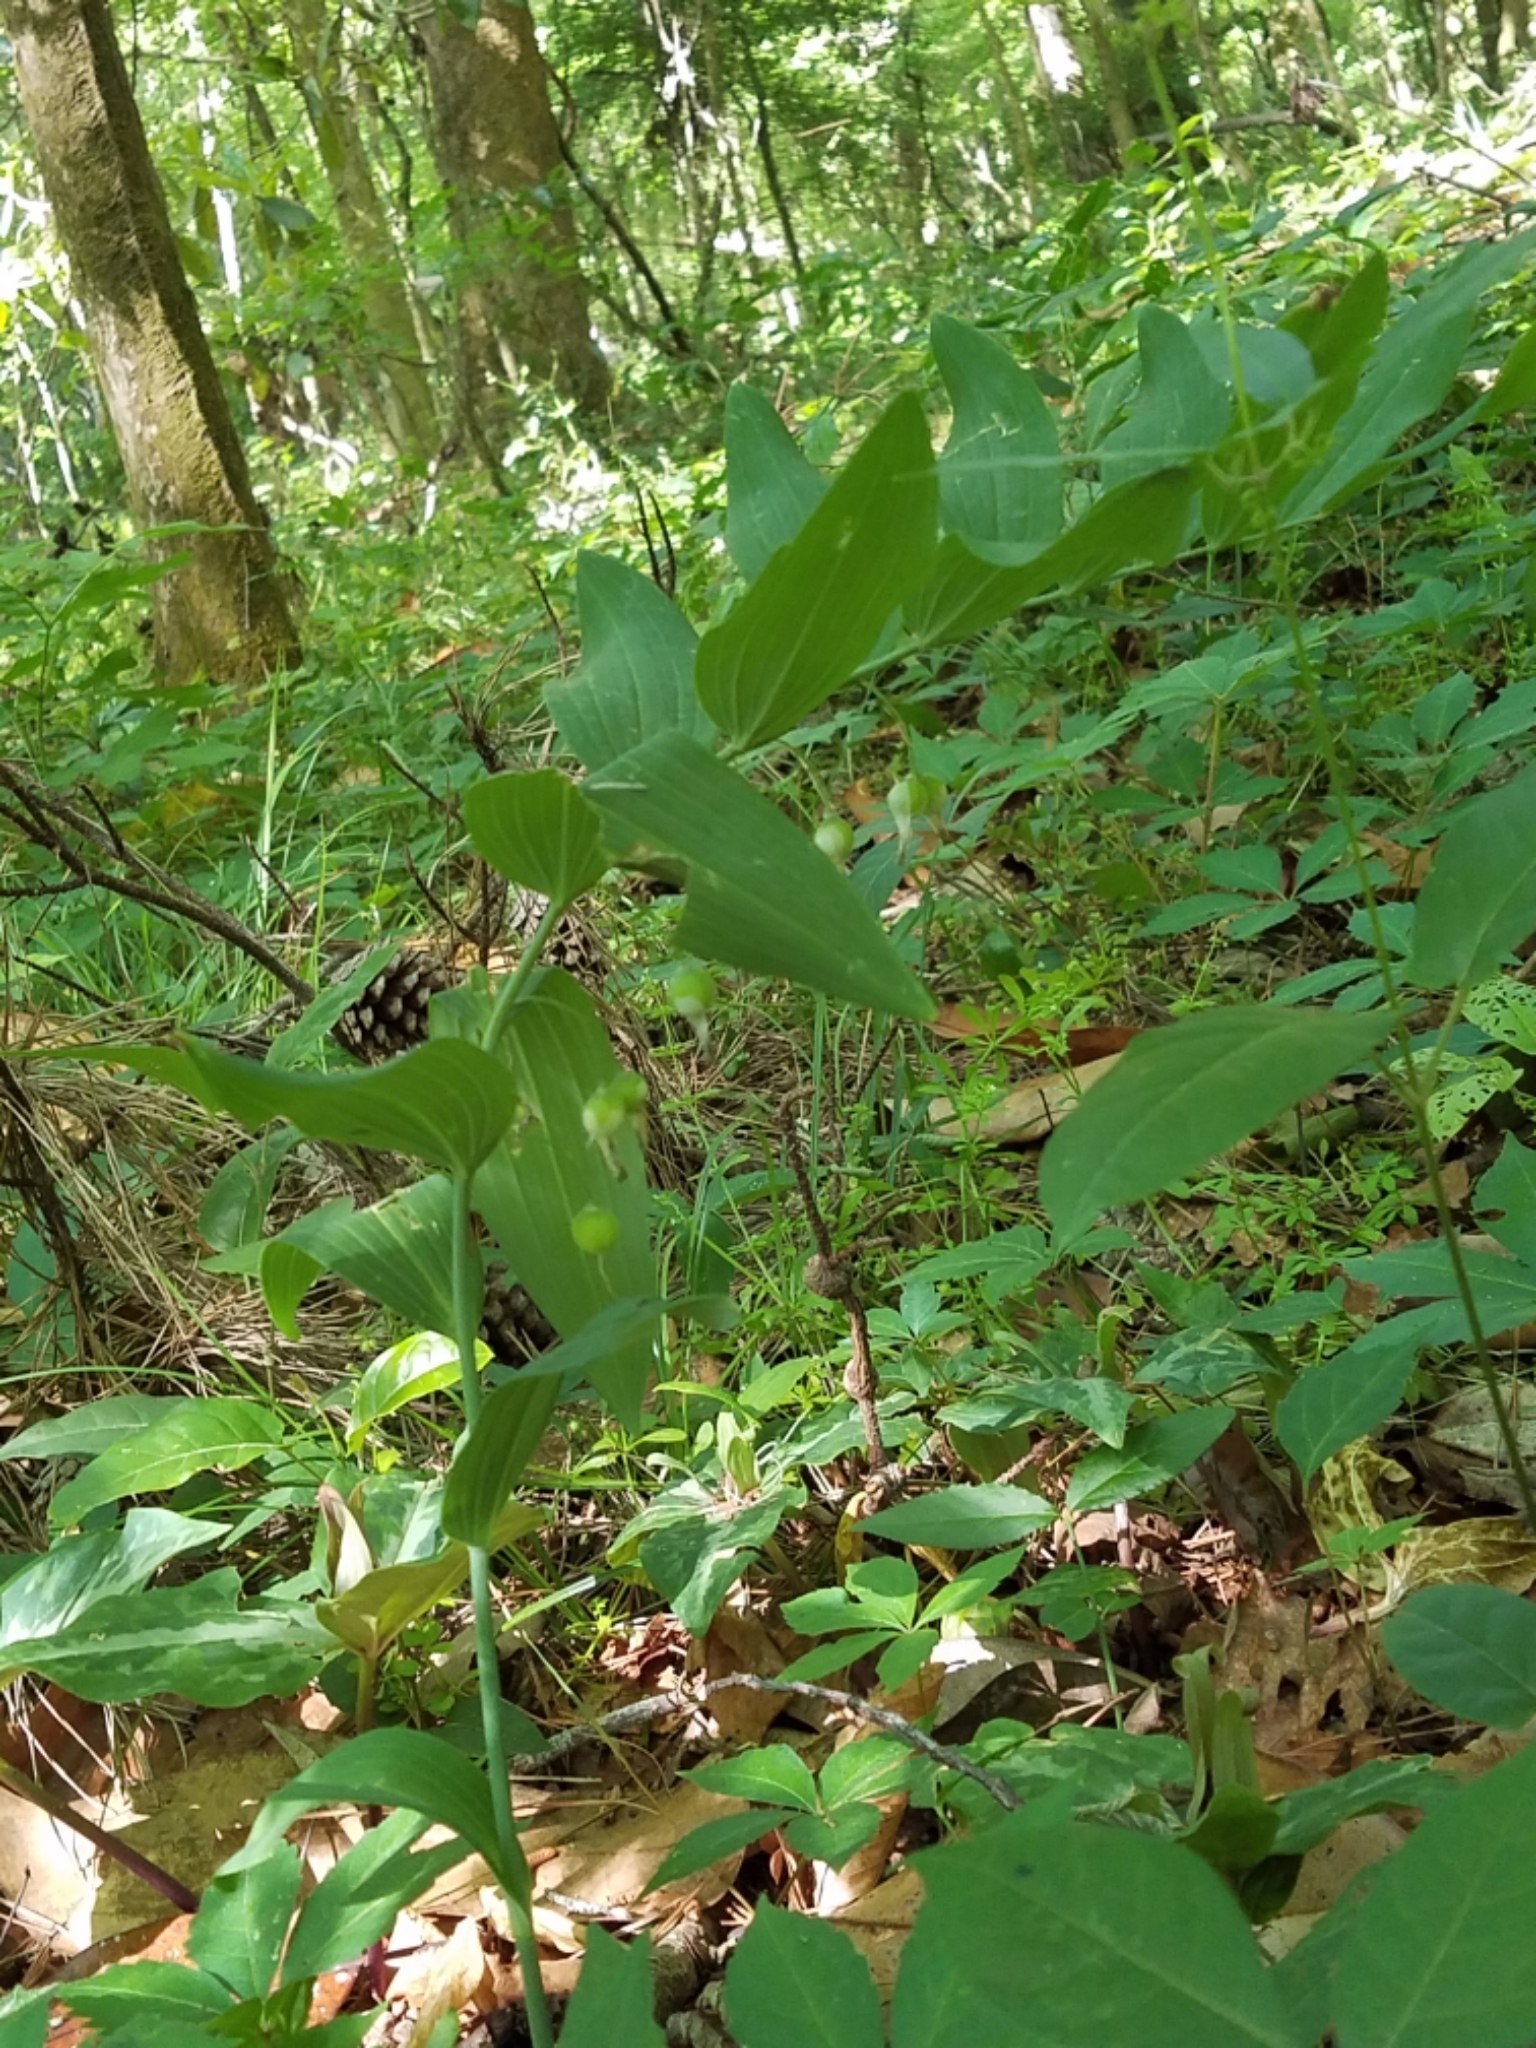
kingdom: Plantae
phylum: Tracheophyta
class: Liliopsida
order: Asparagales
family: Asparagaceae
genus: Polygonatum
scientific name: Polygonatum biflorum
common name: American solomon's-seal
